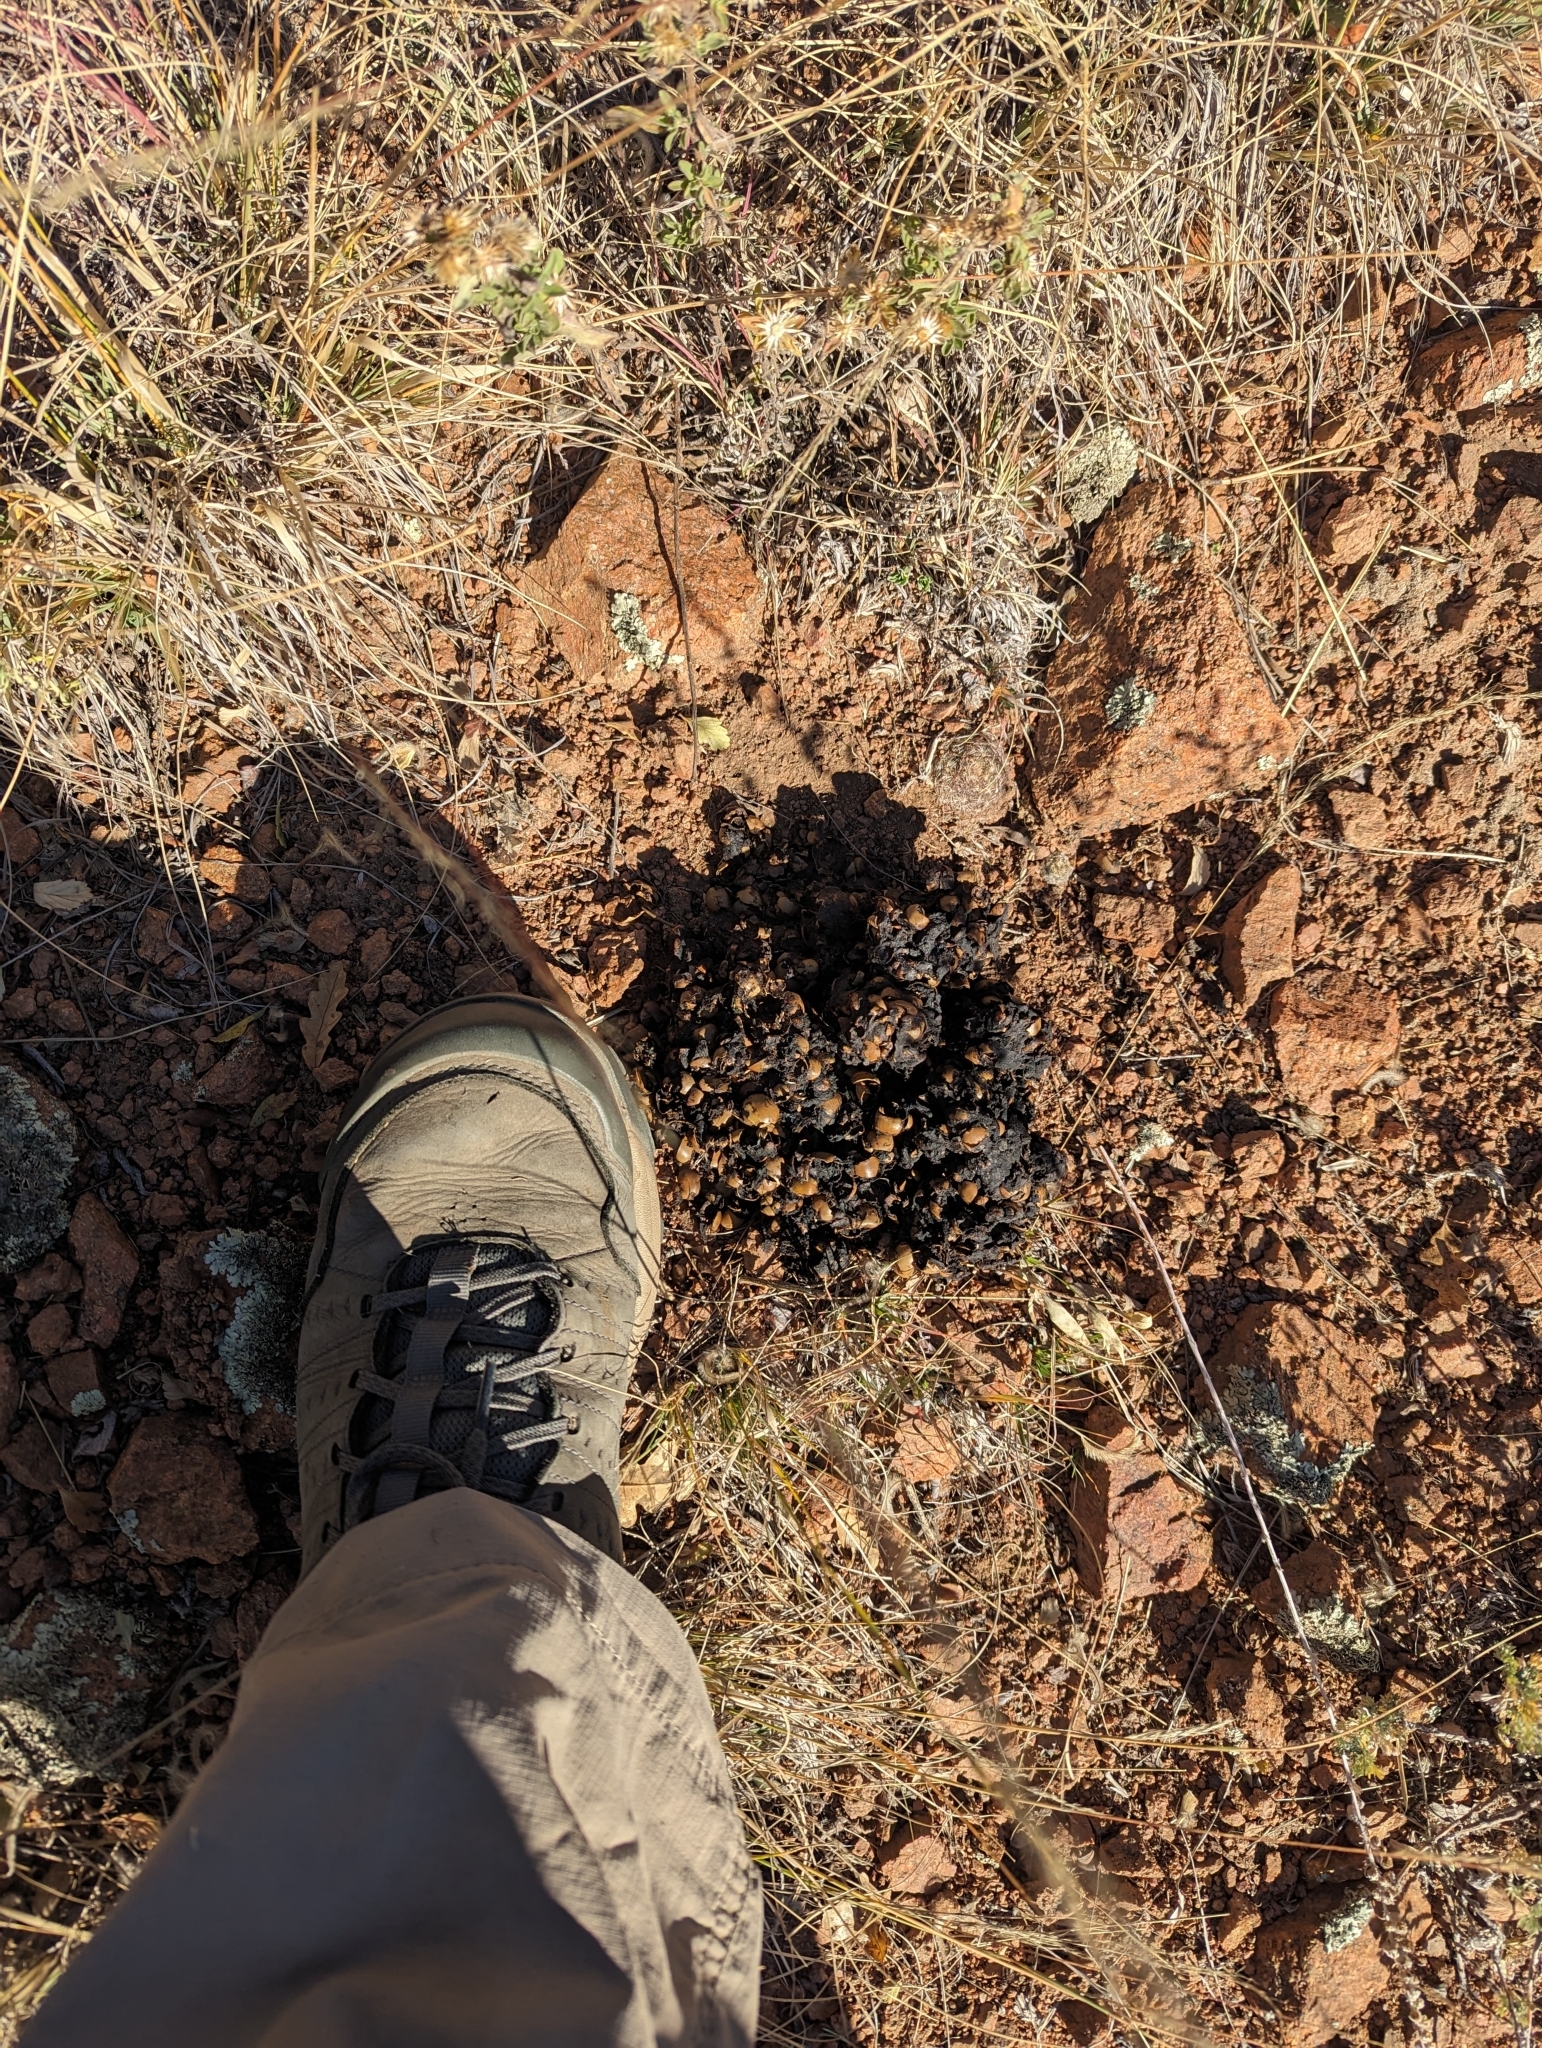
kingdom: Animalia
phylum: Chordata
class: Mammalia
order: Carnivora
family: Ursidae
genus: Ursus
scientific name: Ursus americanus
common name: American black bear
